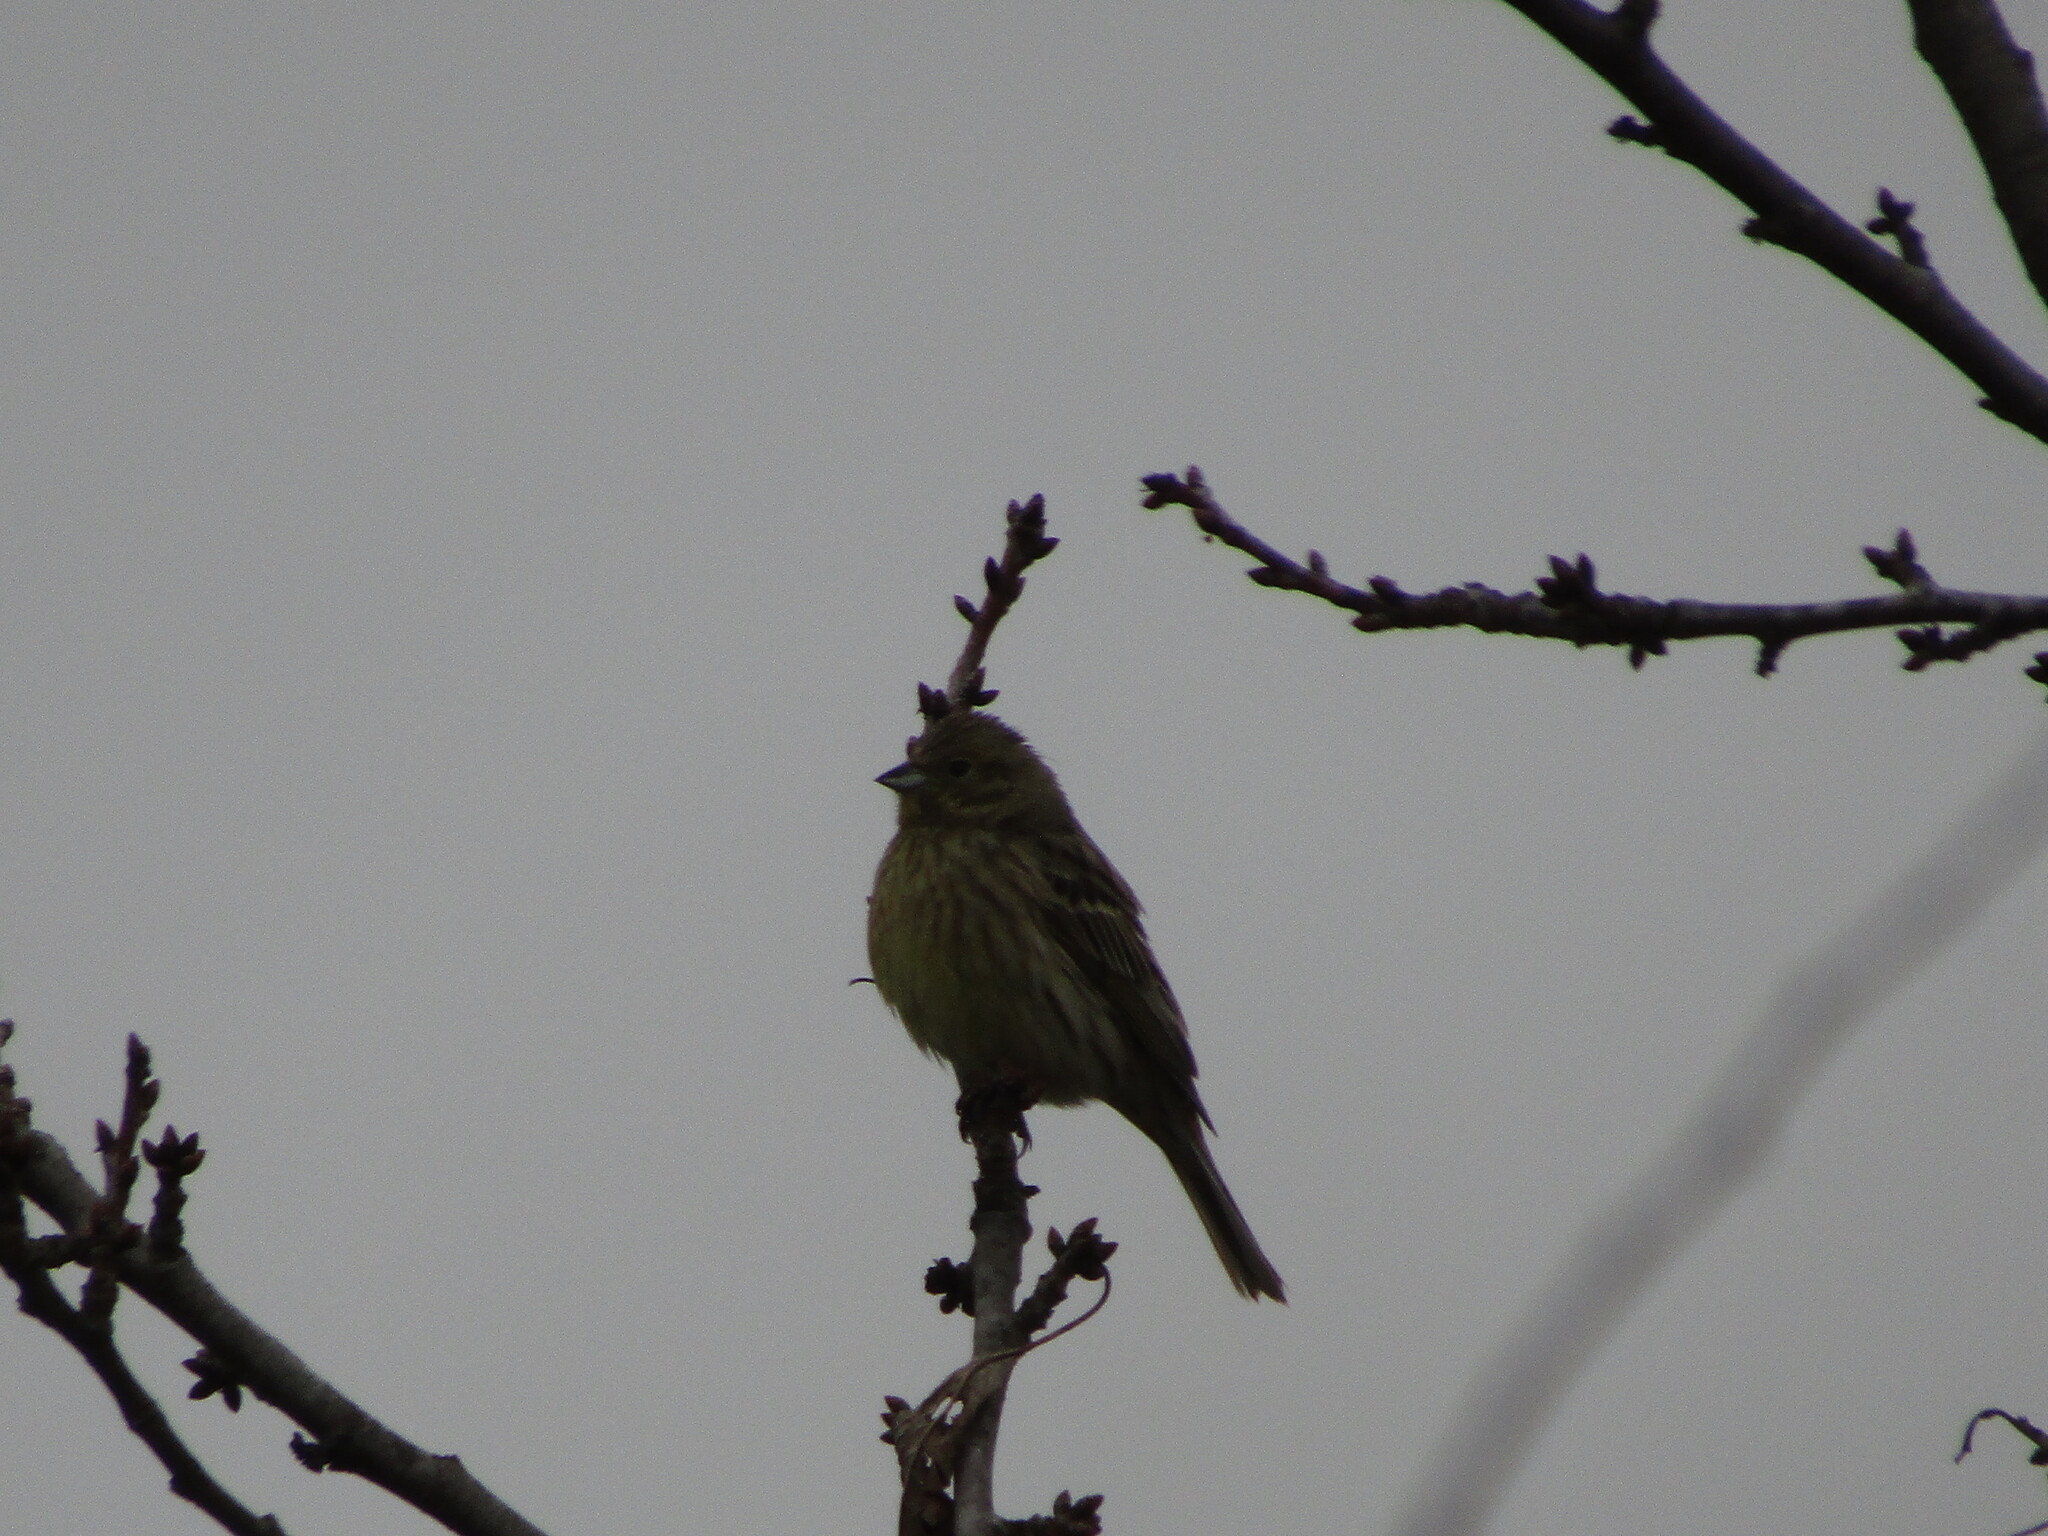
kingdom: Animalia
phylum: Chordata
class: Aves
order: Passeriformes
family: Emberizidae
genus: Emberiza
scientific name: Emberiza citrinella
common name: Yellowhammer
